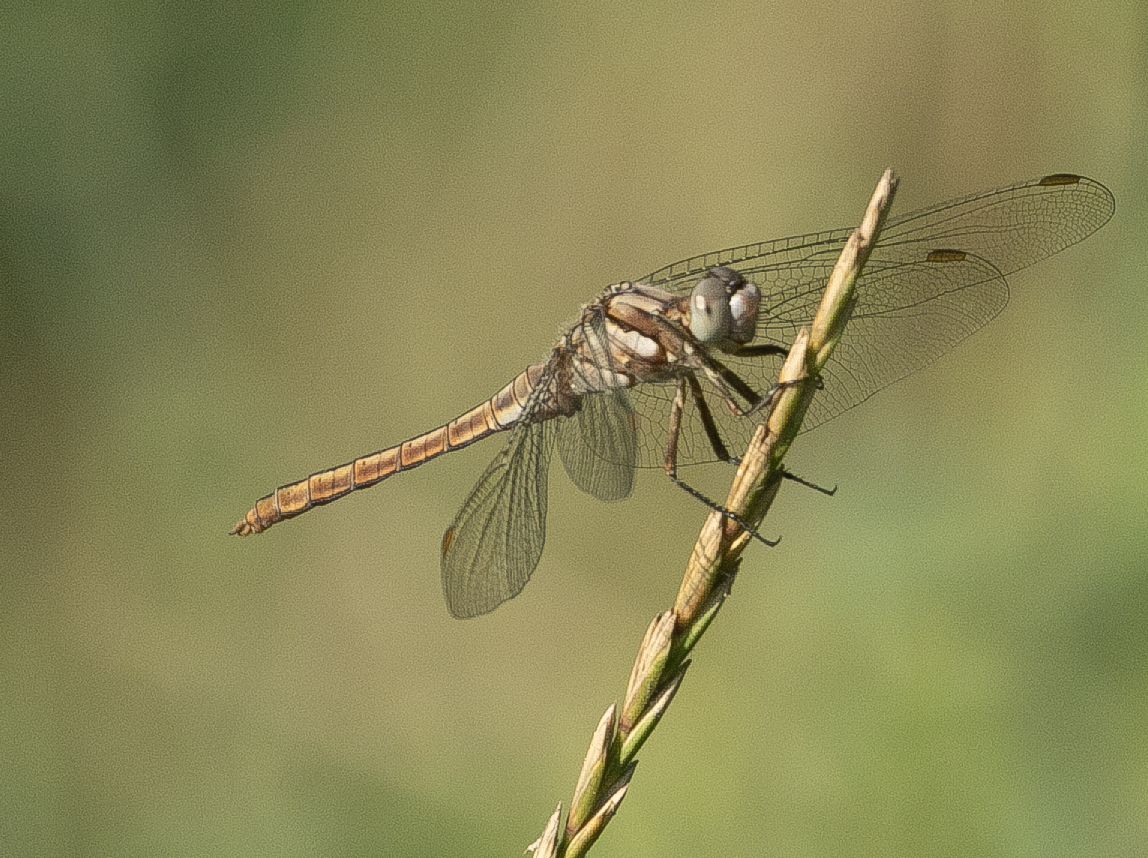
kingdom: Animalia
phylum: Arthropoda
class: Insecta
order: Odonata
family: Libellulidae
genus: Orthetrum
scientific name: Orthetrum brunneum
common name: Southern skimmer
